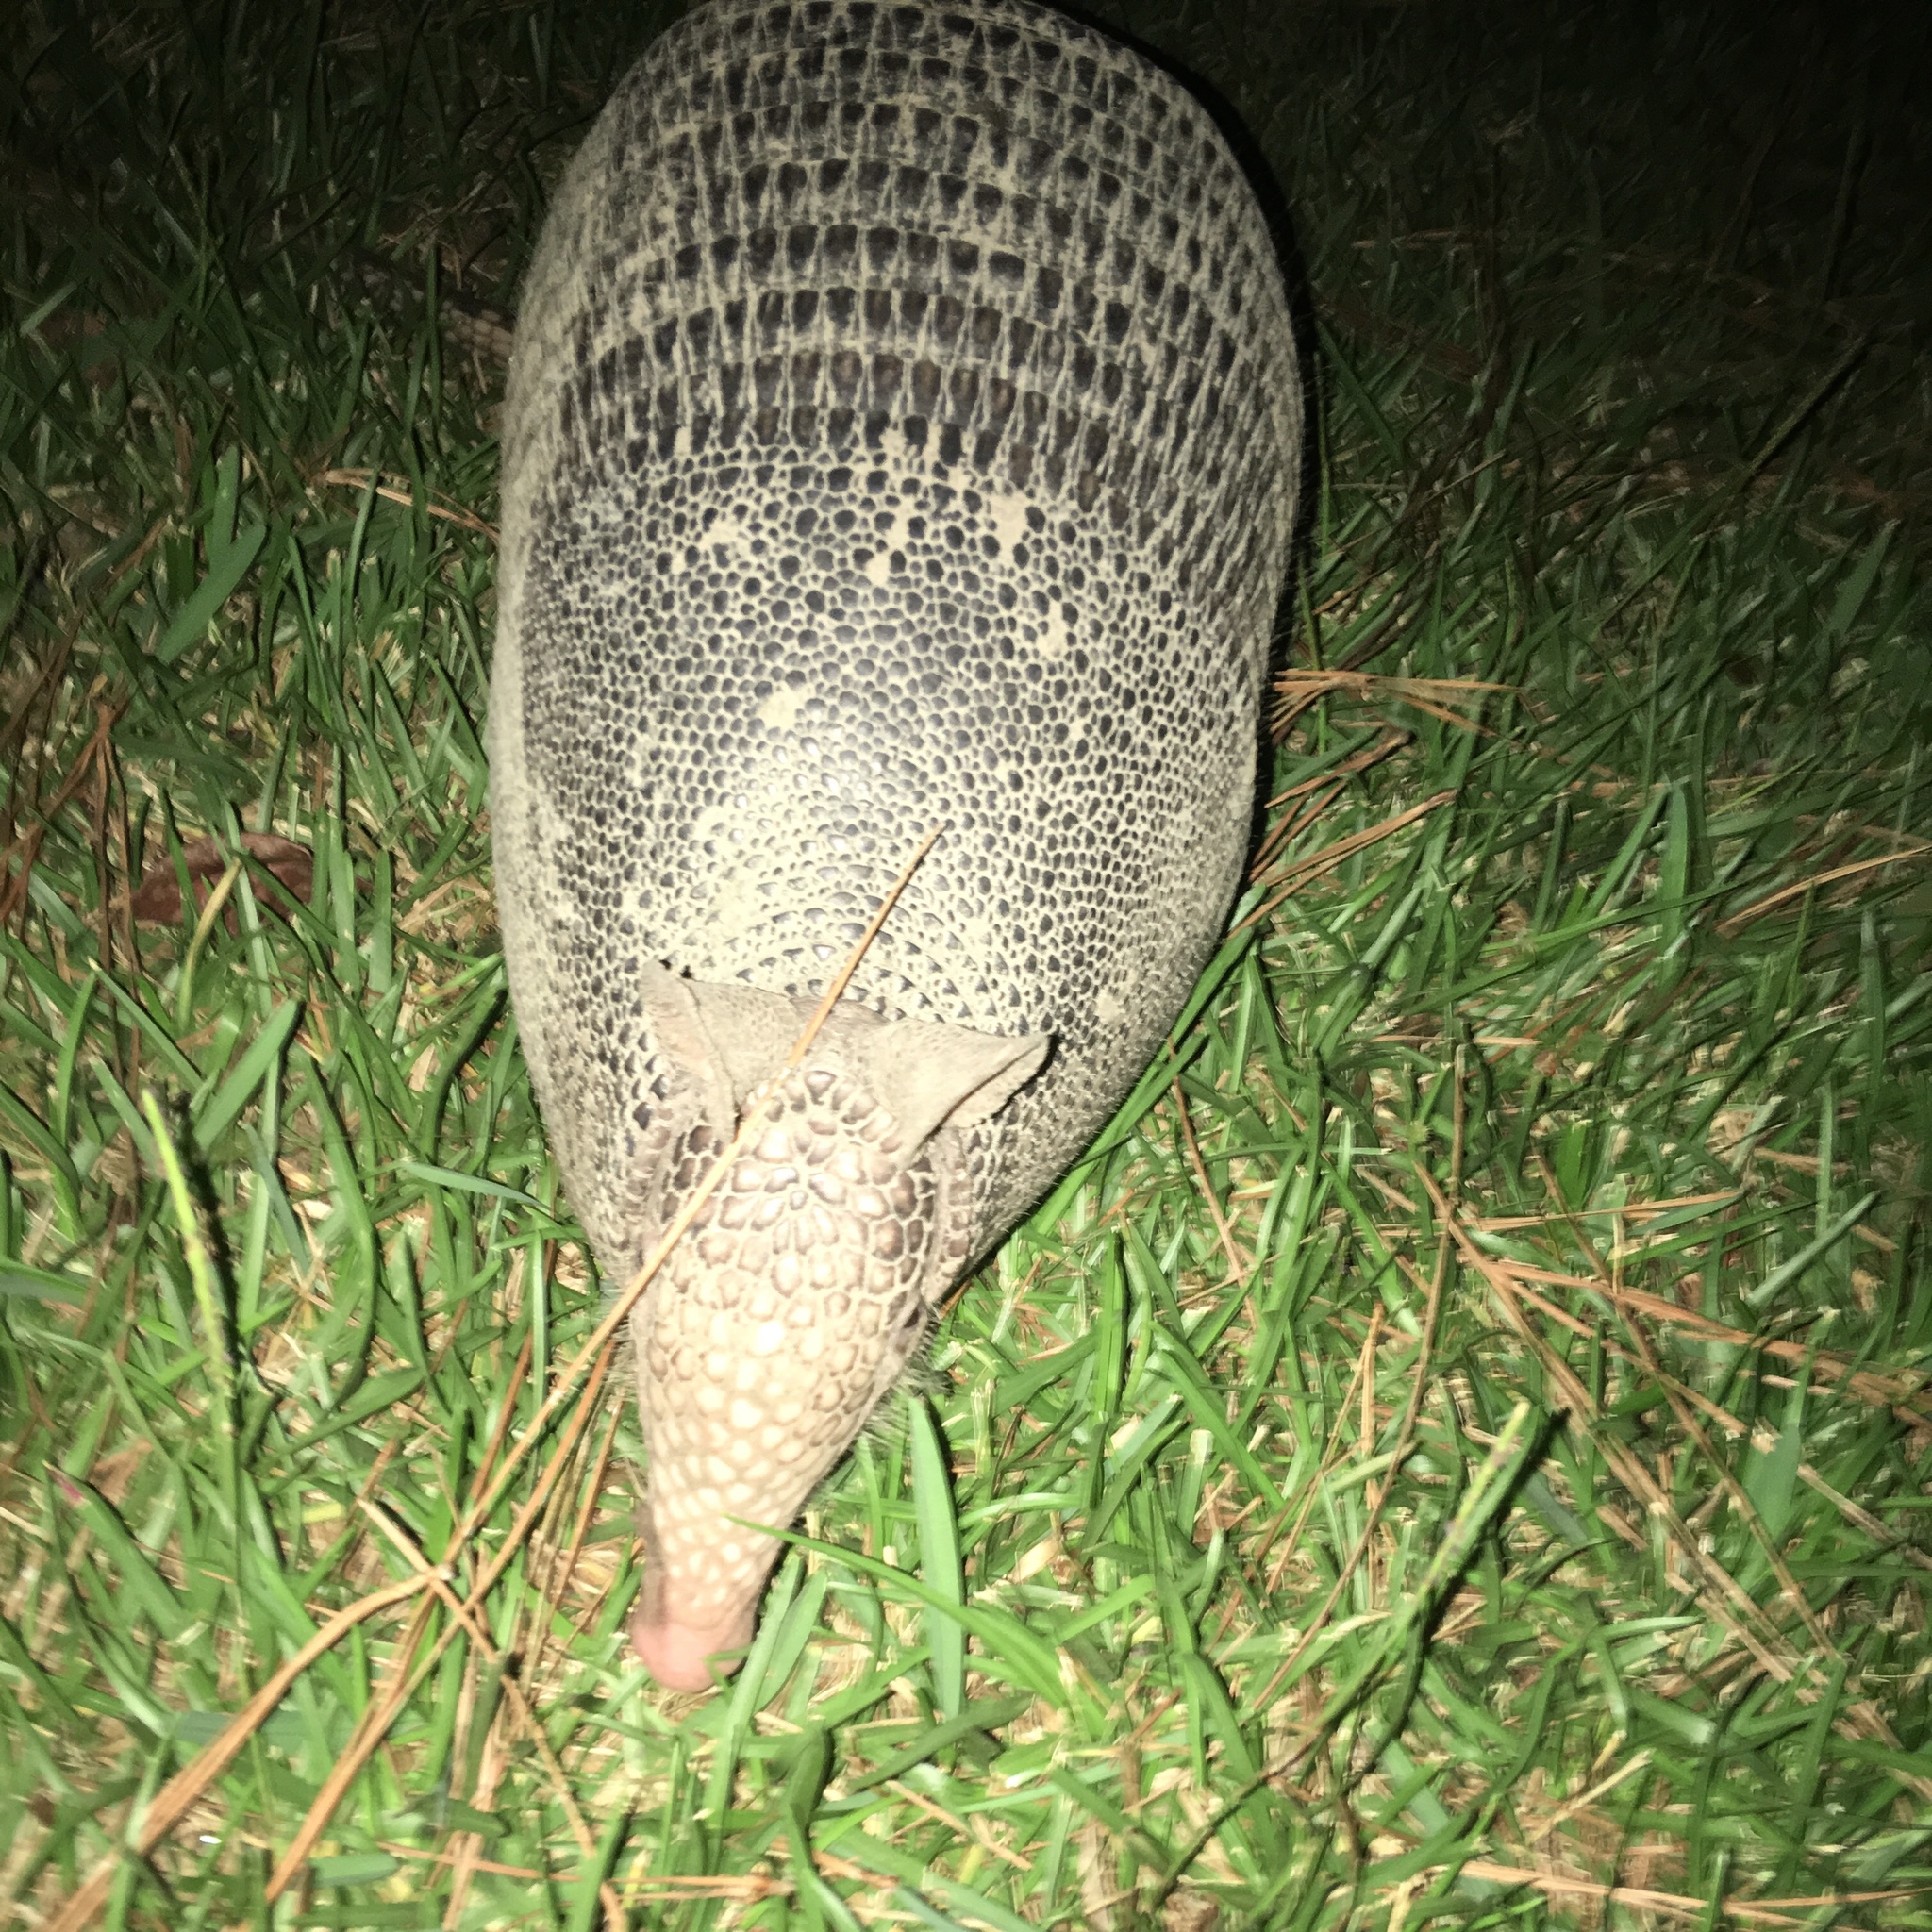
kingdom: Animalia
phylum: Chordata
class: Mammalia
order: Cingulata
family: Dasypodidae
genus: Dasypus
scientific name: Dasypus novemcinctus
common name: Nine-banded armadillo
